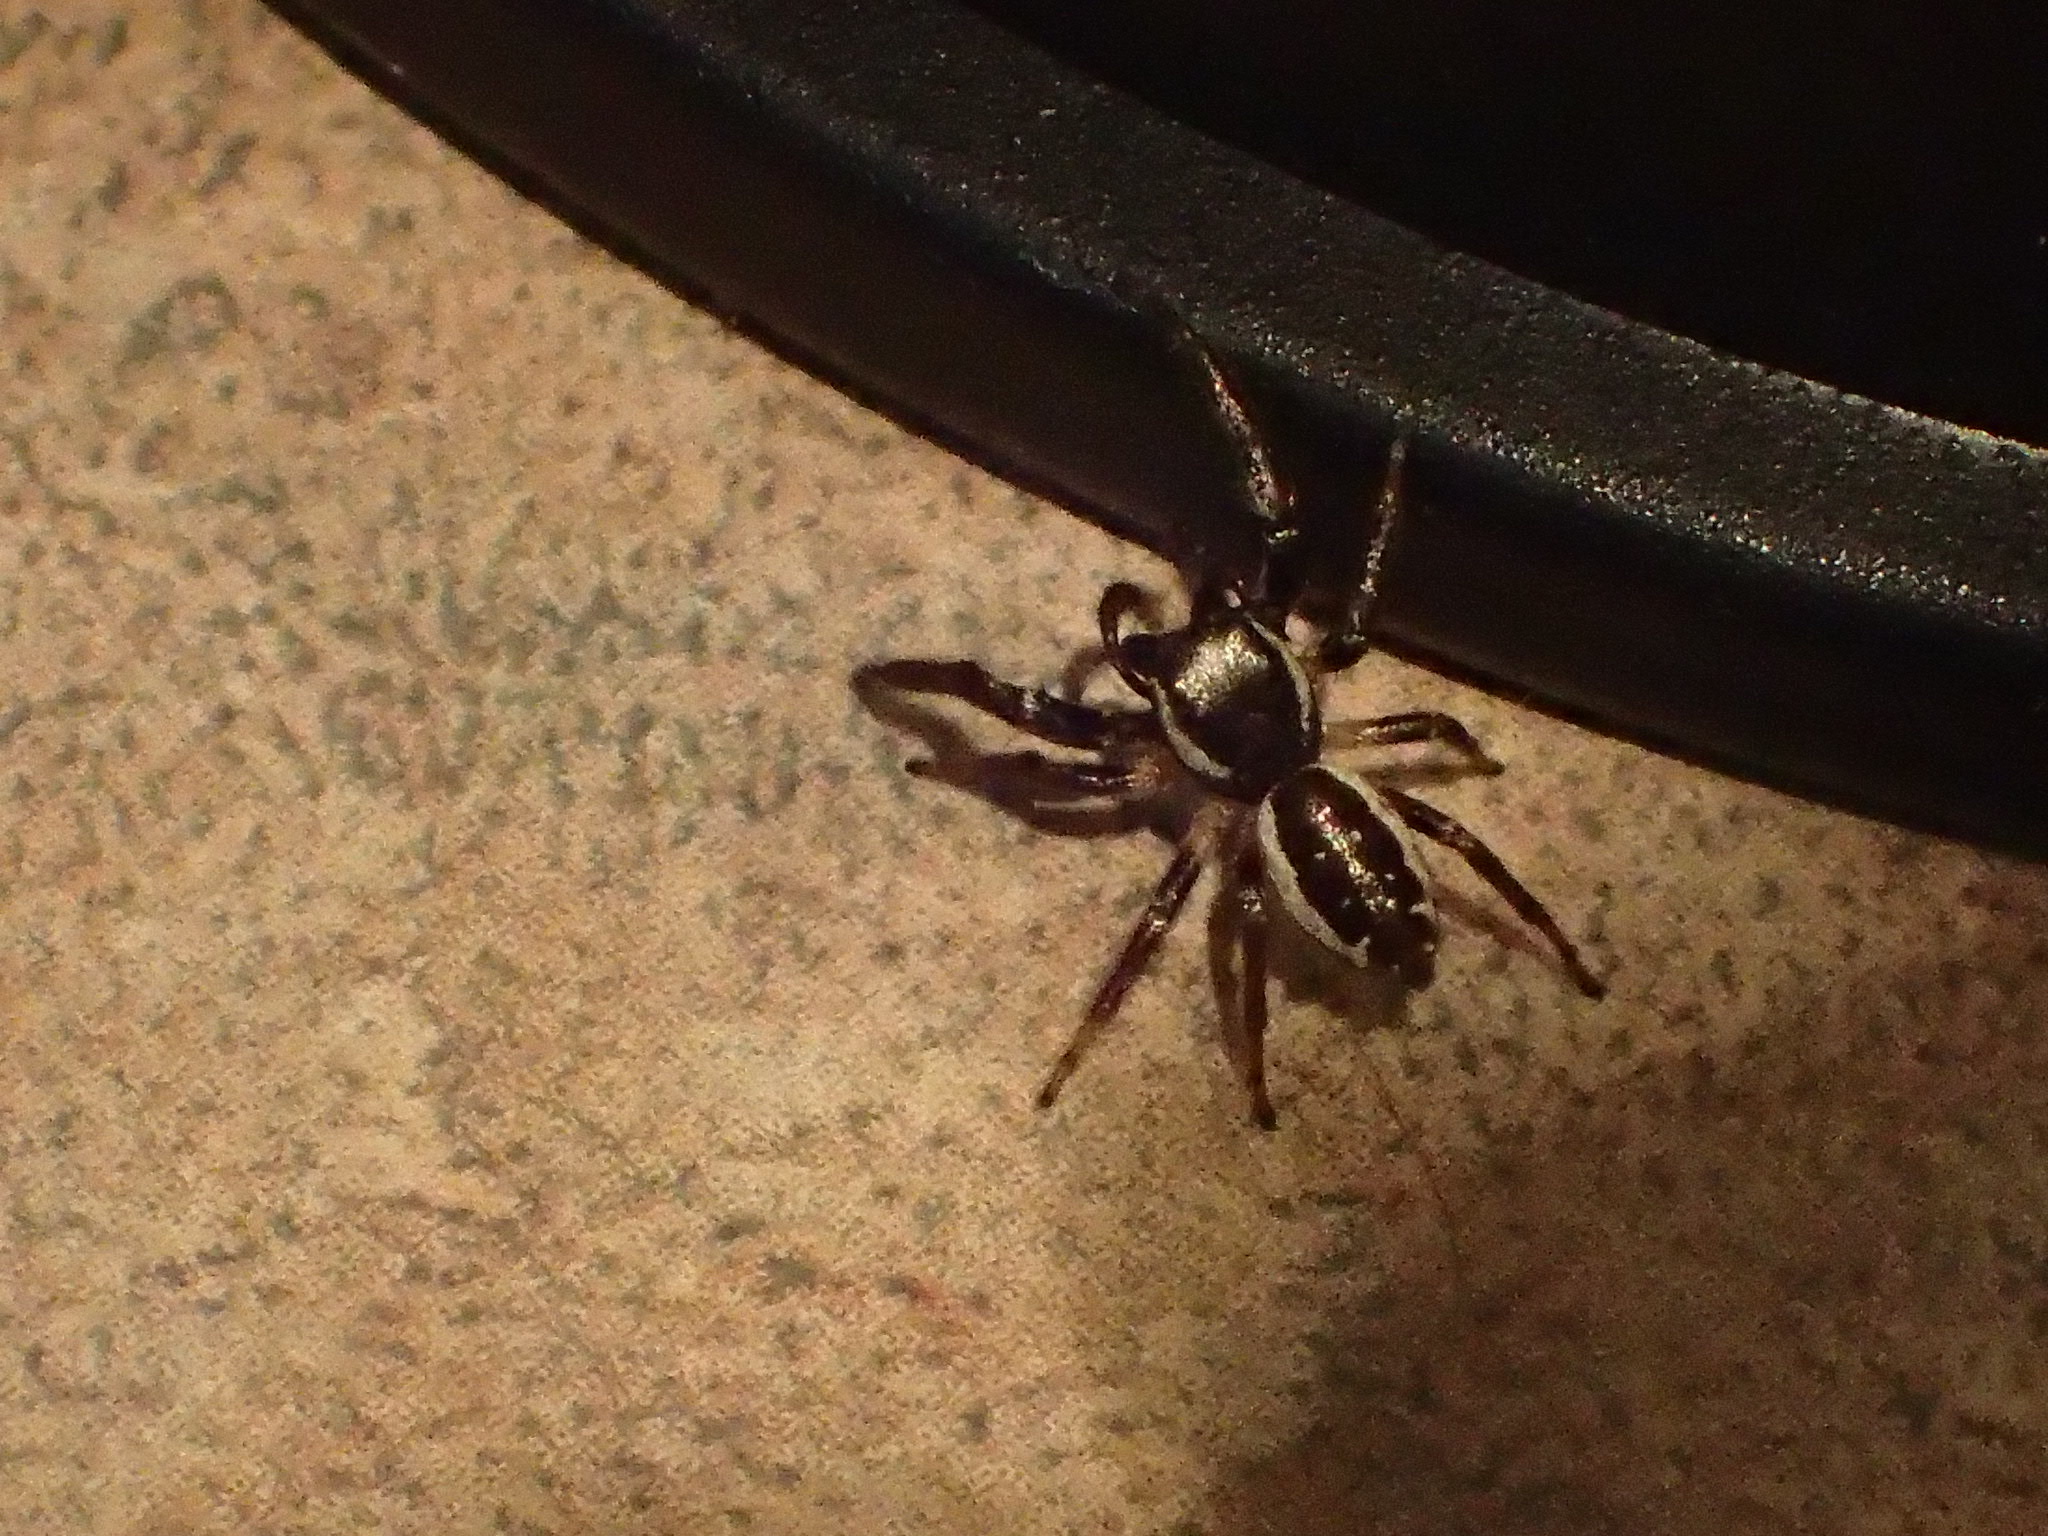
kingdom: Animalia
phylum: Arthropoda
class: Arachnida
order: Araneae
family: Salticidae
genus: Eris
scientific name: Eris militaris
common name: Bronze jumper
